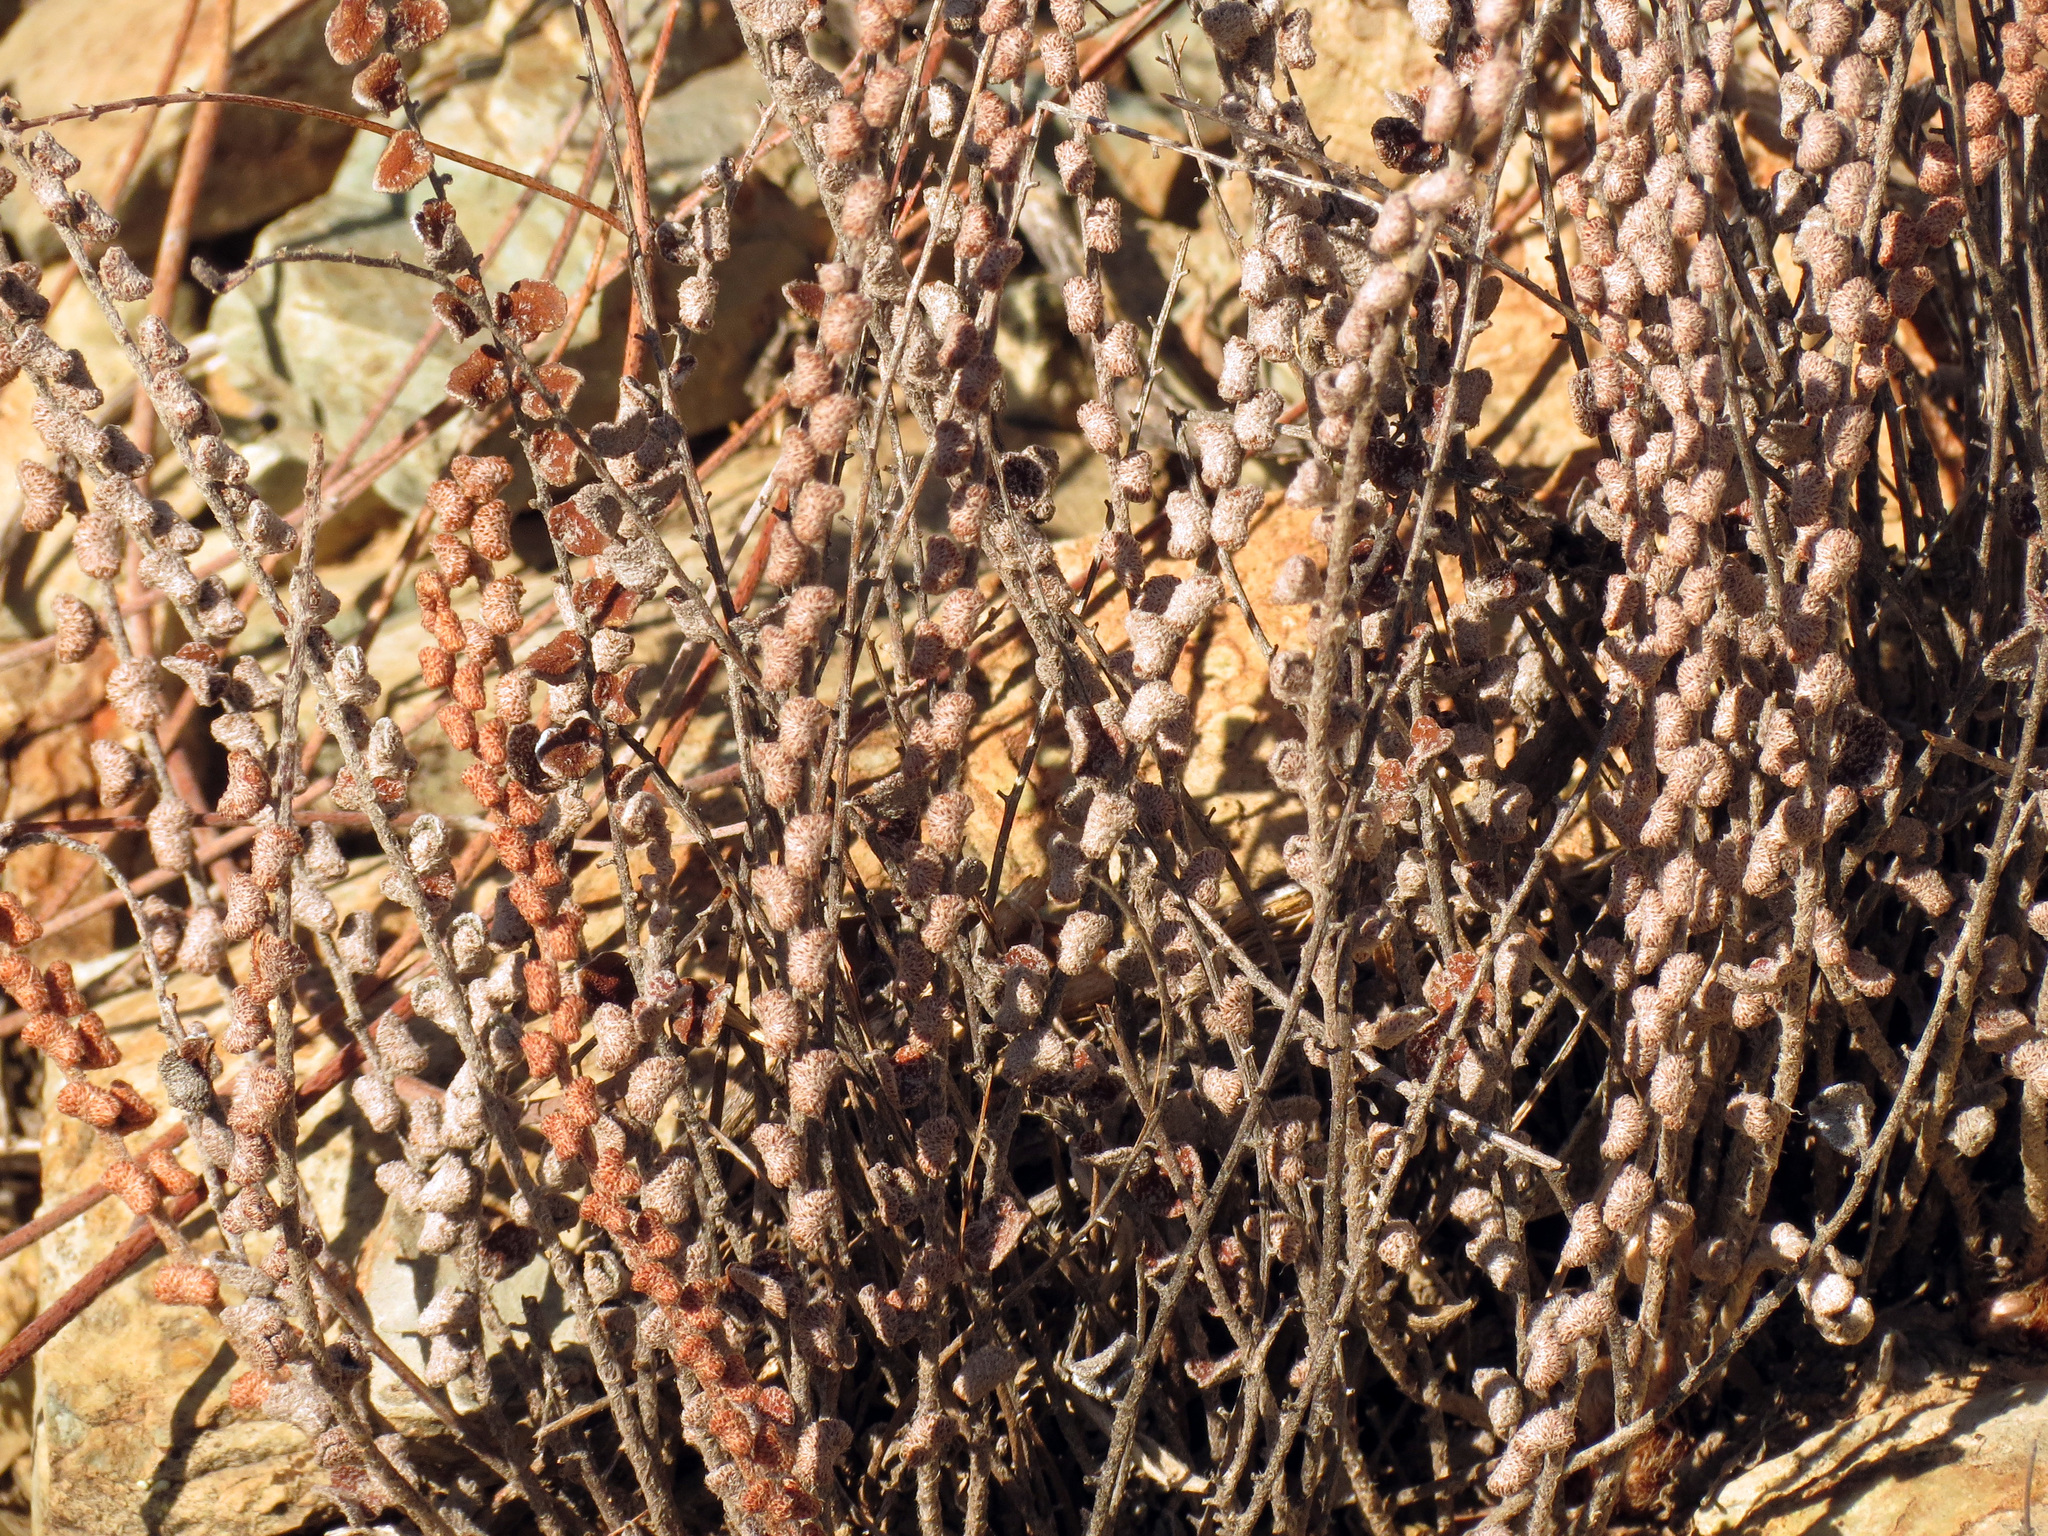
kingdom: Plantae
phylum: Tracheophyta
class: Polypodiopsida
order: Polypodiales
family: Pteridaceae
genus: Astrolepis
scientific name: Astrolepis cochisensis
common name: Scaly cloak fern
